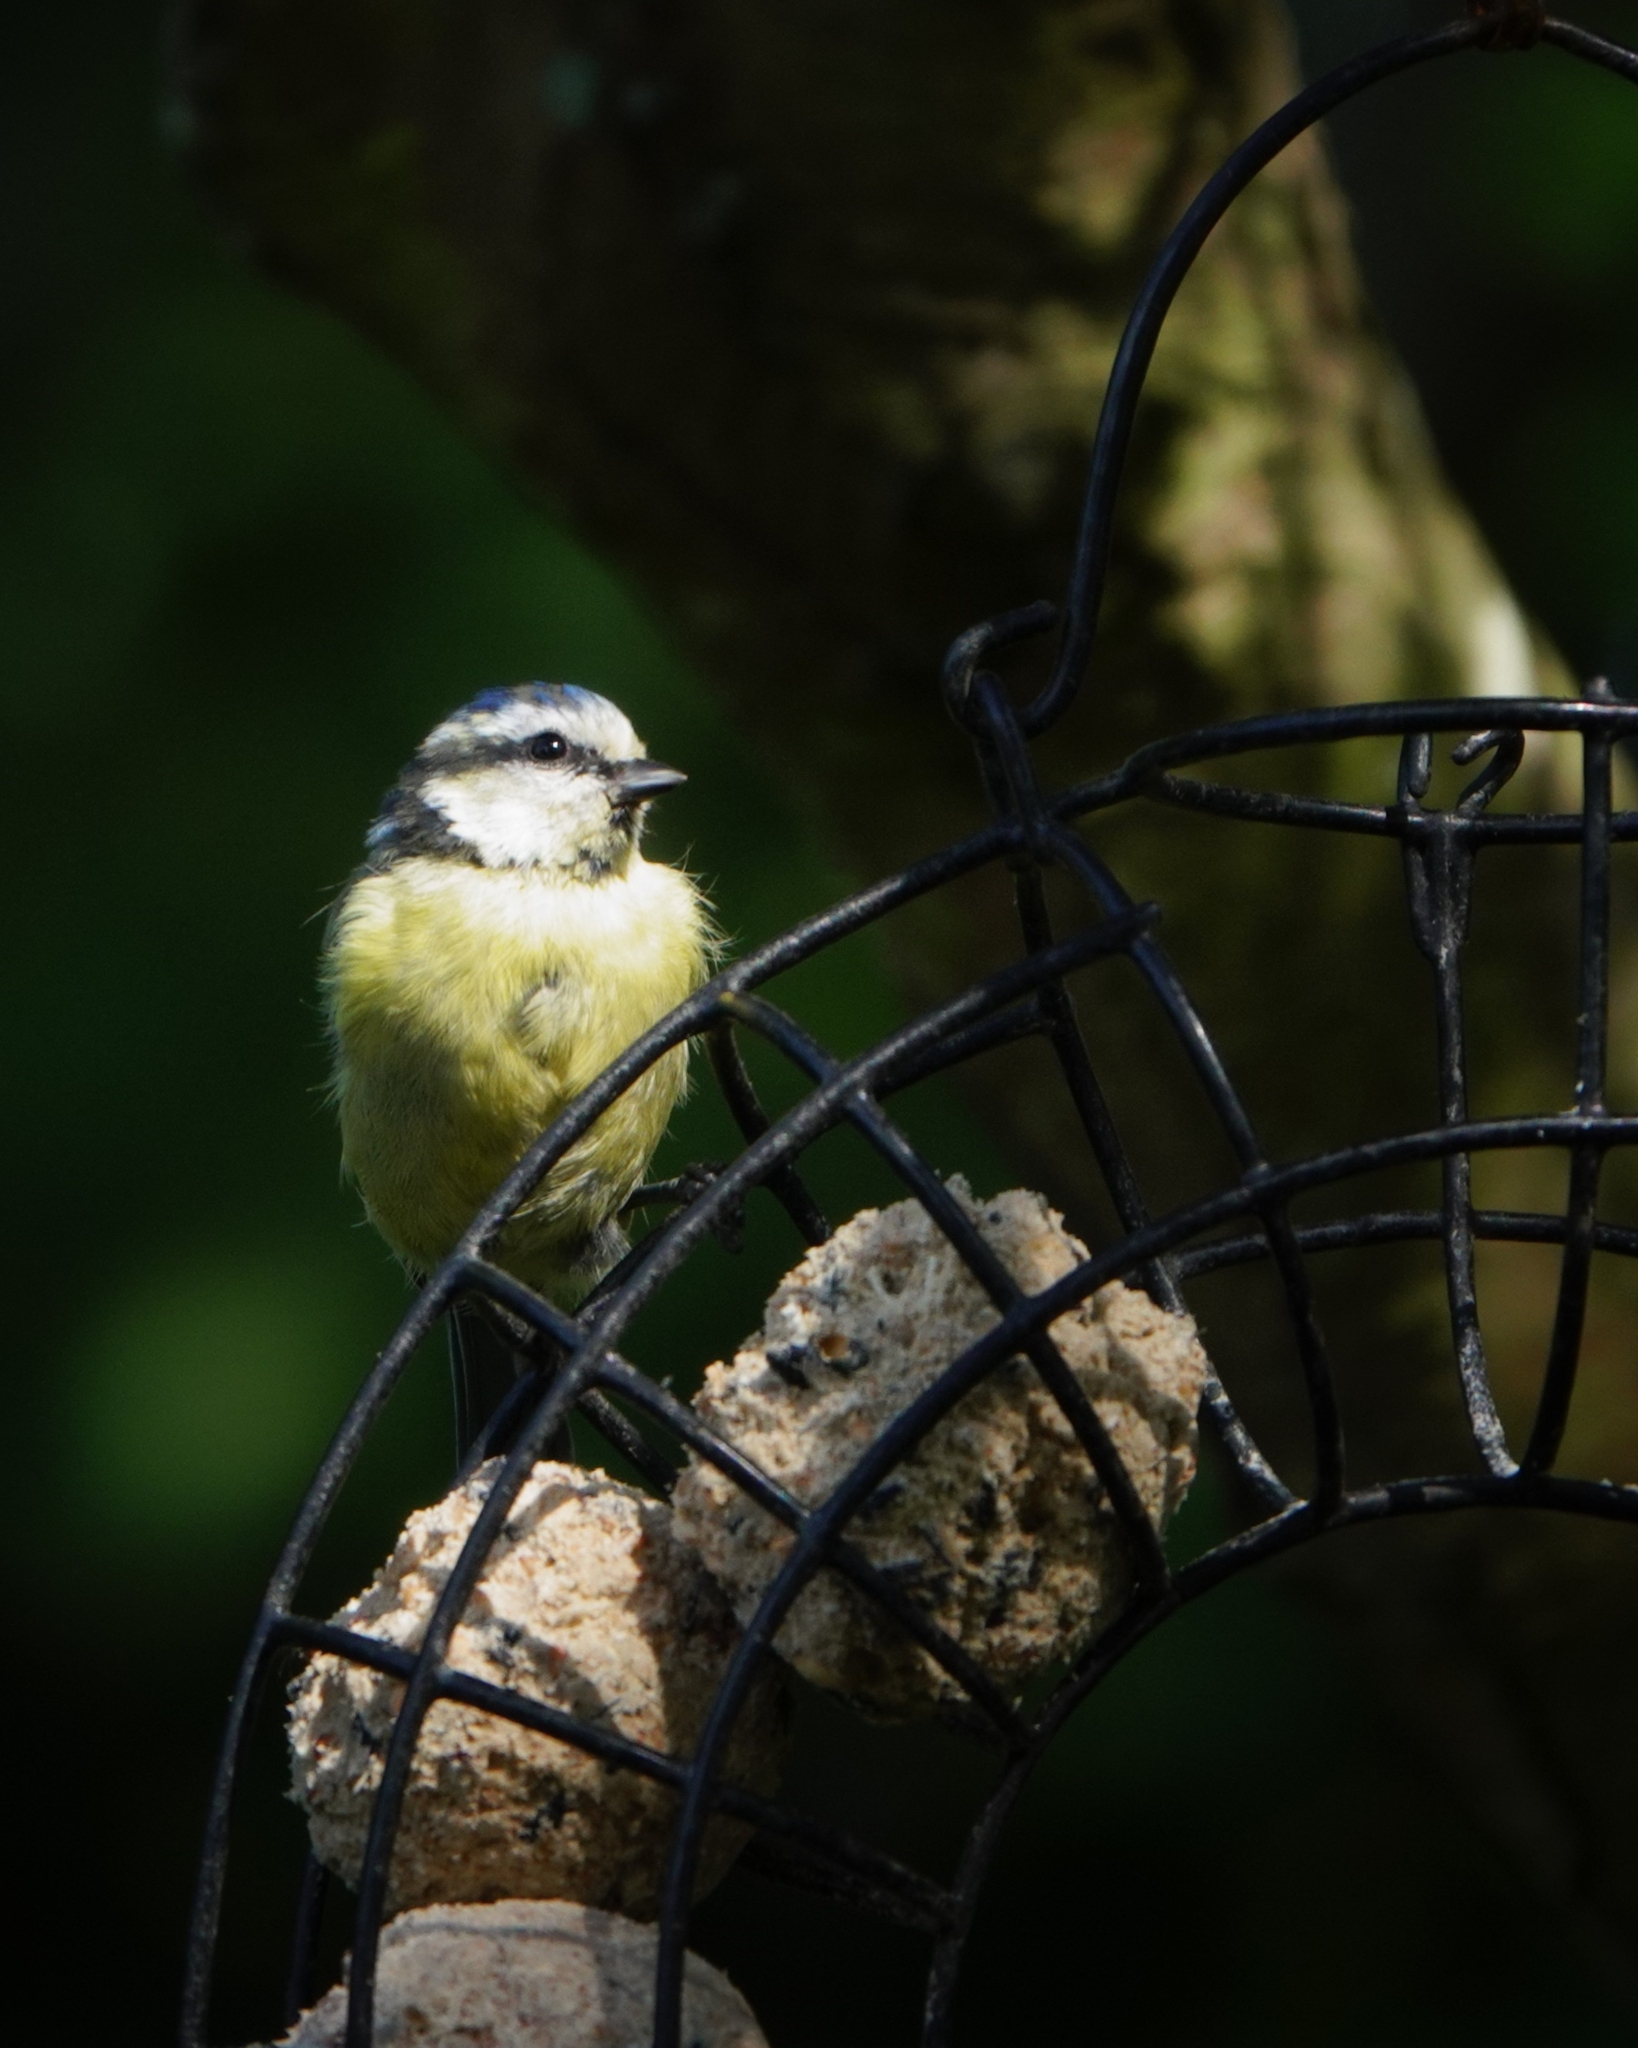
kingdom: Animalia
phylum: Chordata
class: Aves
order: Passeriformes
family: Paridae
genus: Cyanistes
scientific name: Cyanistes caeruleus
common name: Eurasian blue tit
